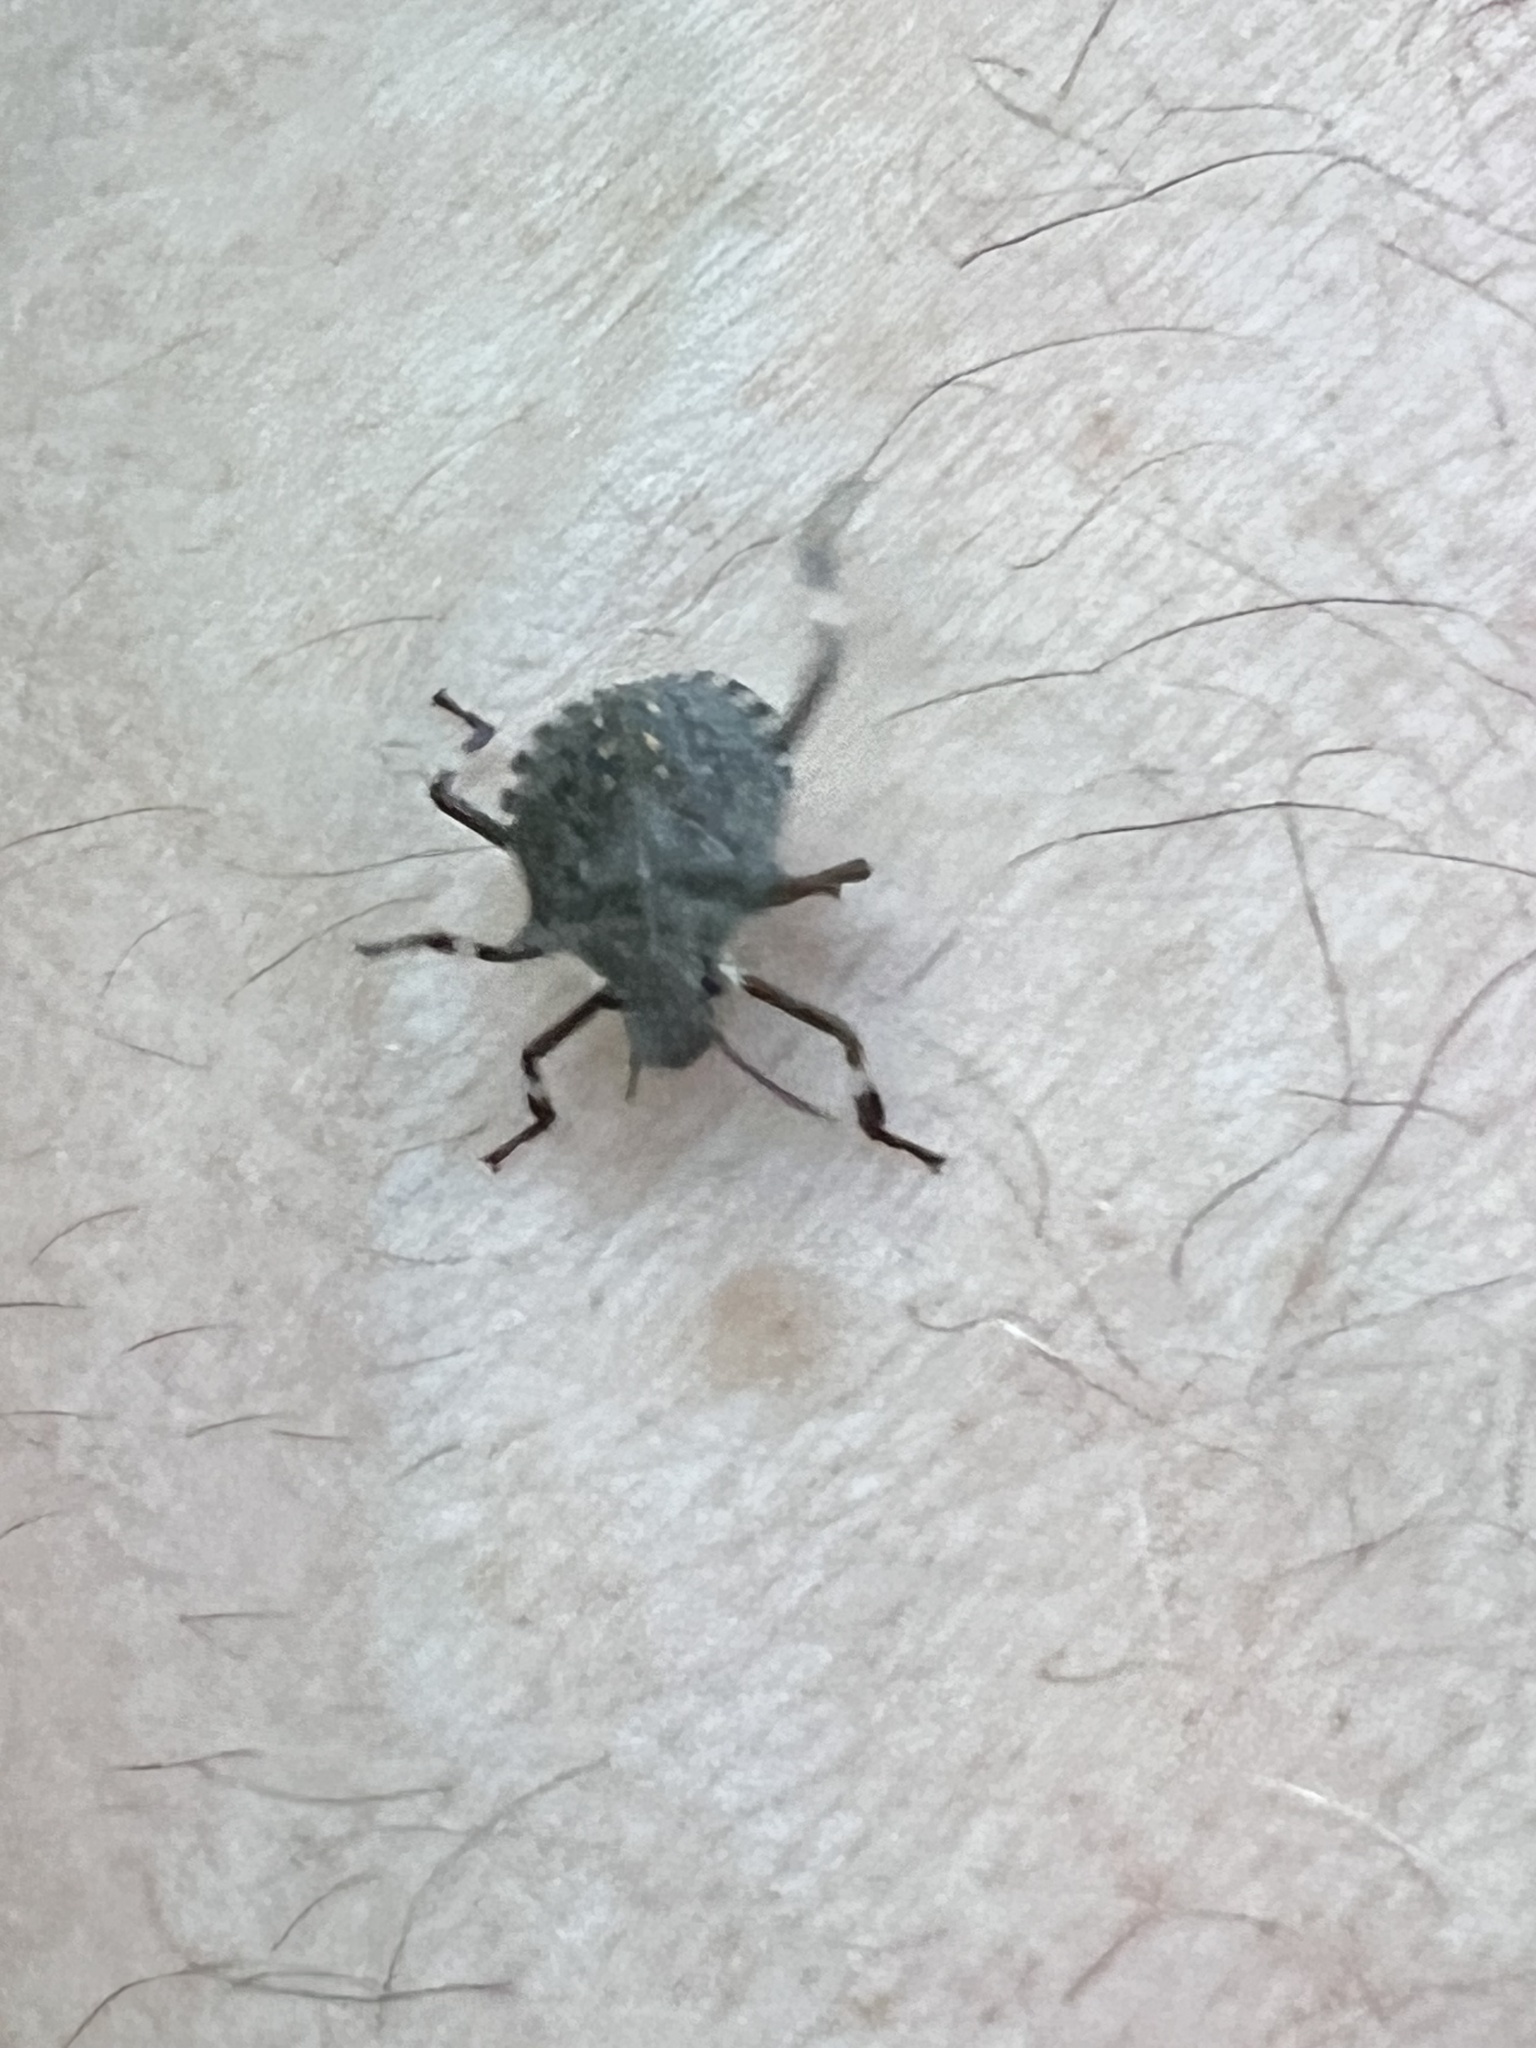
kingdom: Animalia
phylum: Arthropoda
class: Insecta
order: Hemiptera
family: Pentatomidae
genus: Halyomorpha
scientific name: Halyomorpha halys
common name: Brown marmorated stink bug
